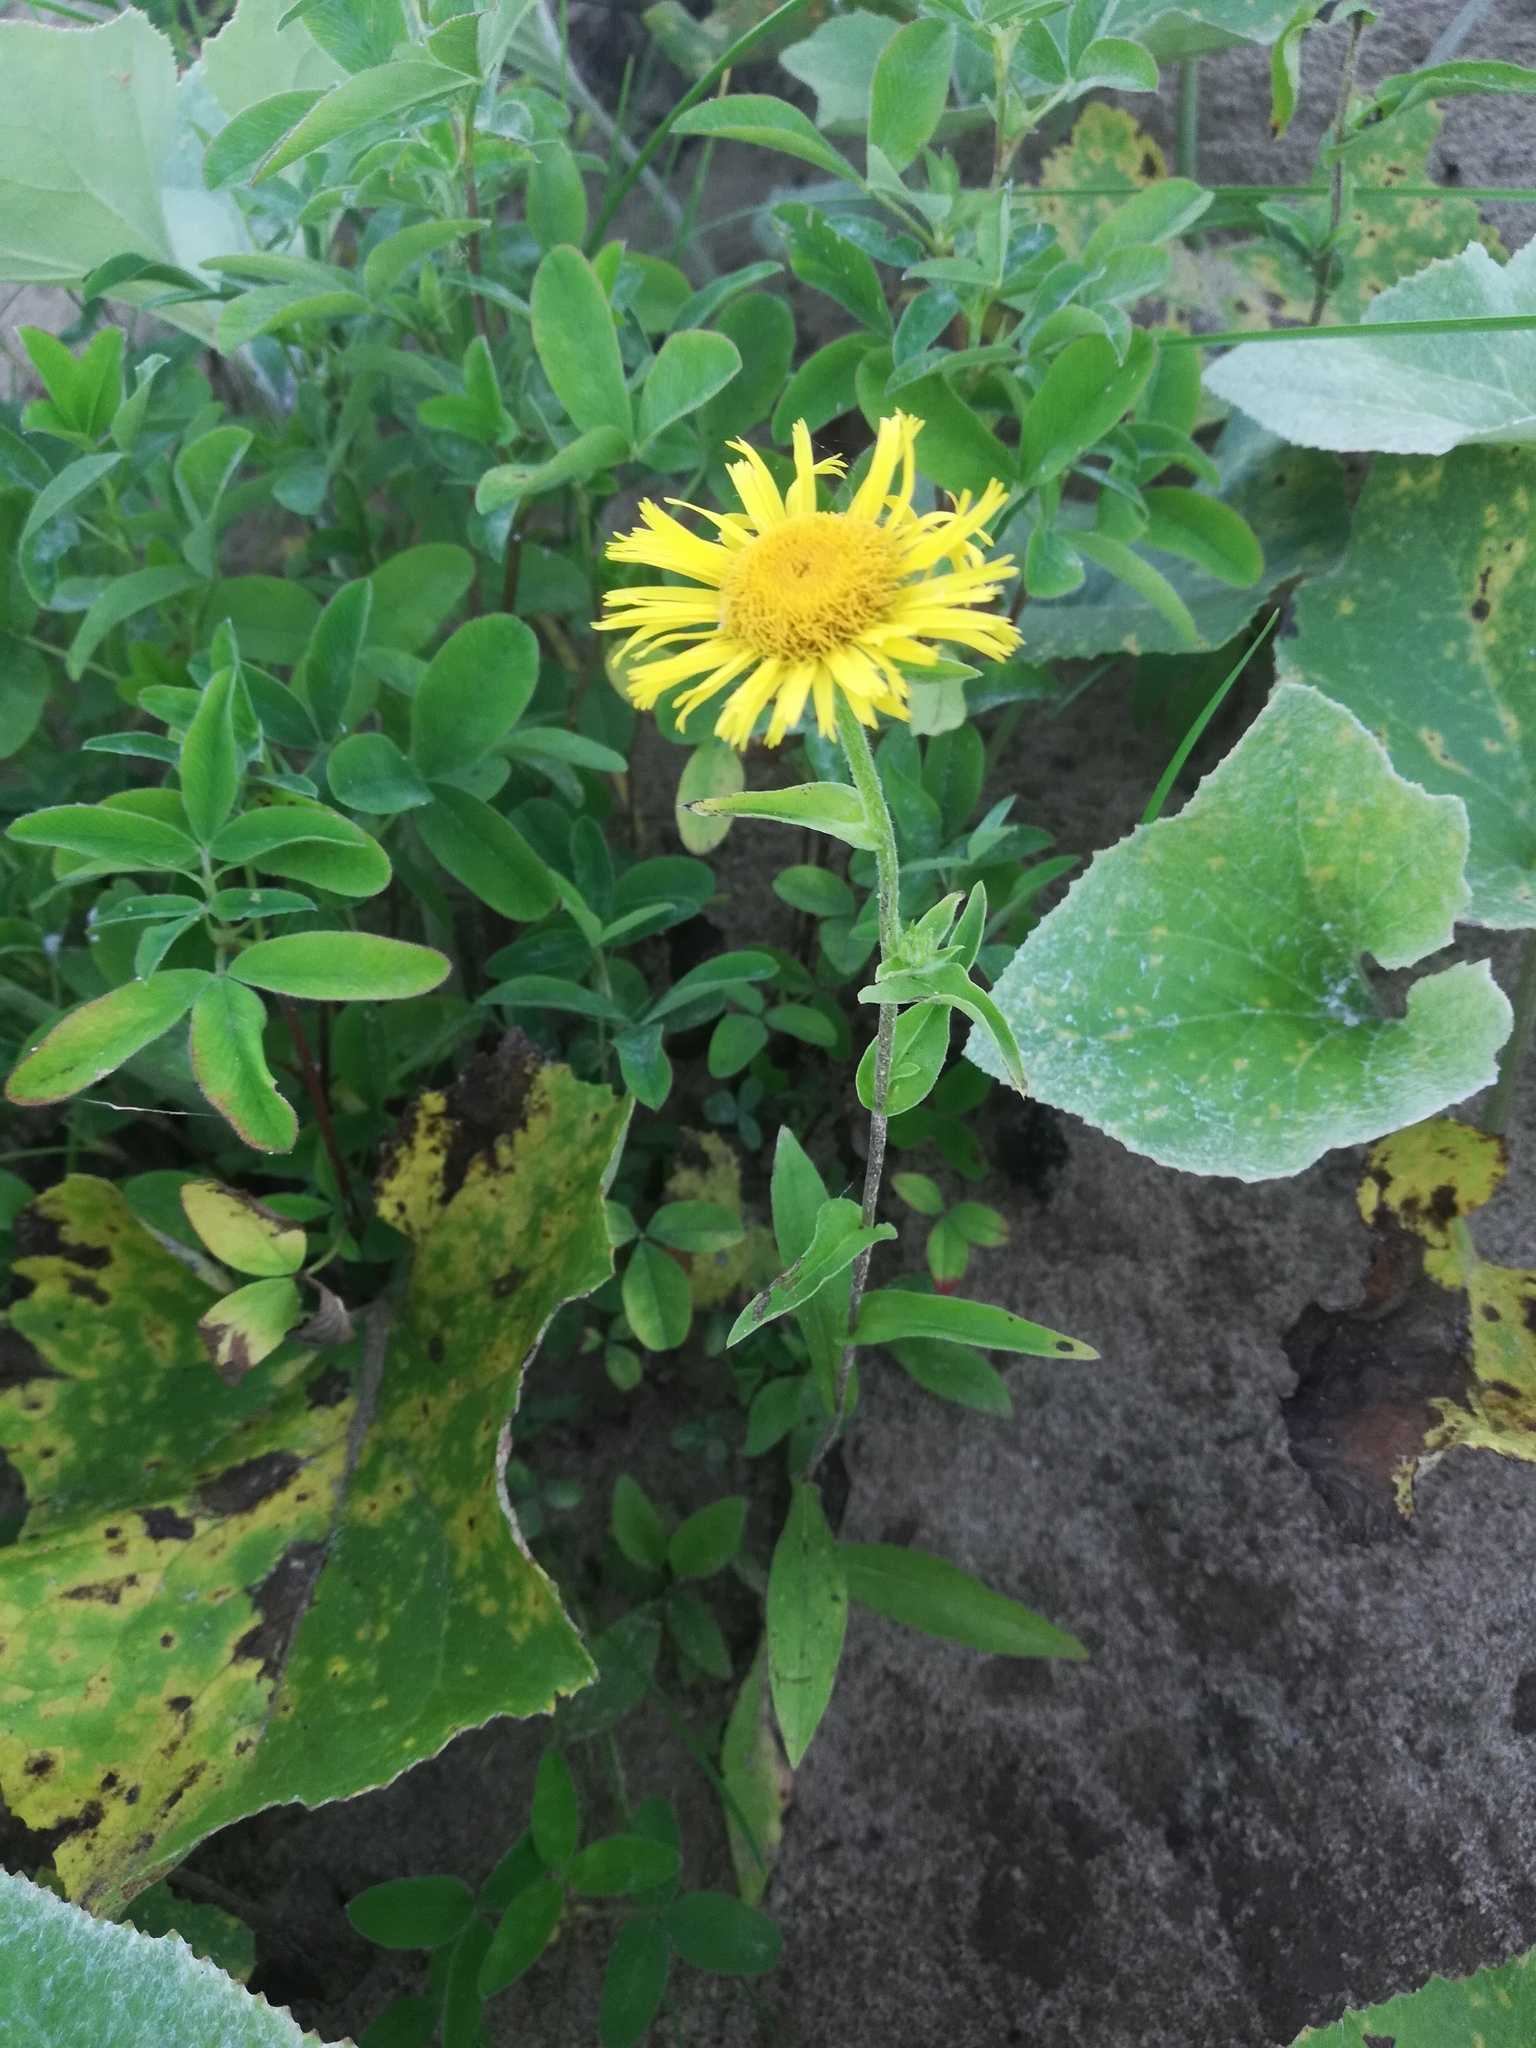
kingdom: Plantae
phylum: Tracheophyta
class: Magnoliopsida
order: Asterales
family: Asteraceae
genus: Pentanema
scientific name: Pentanema britannicum
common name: British elecampane
